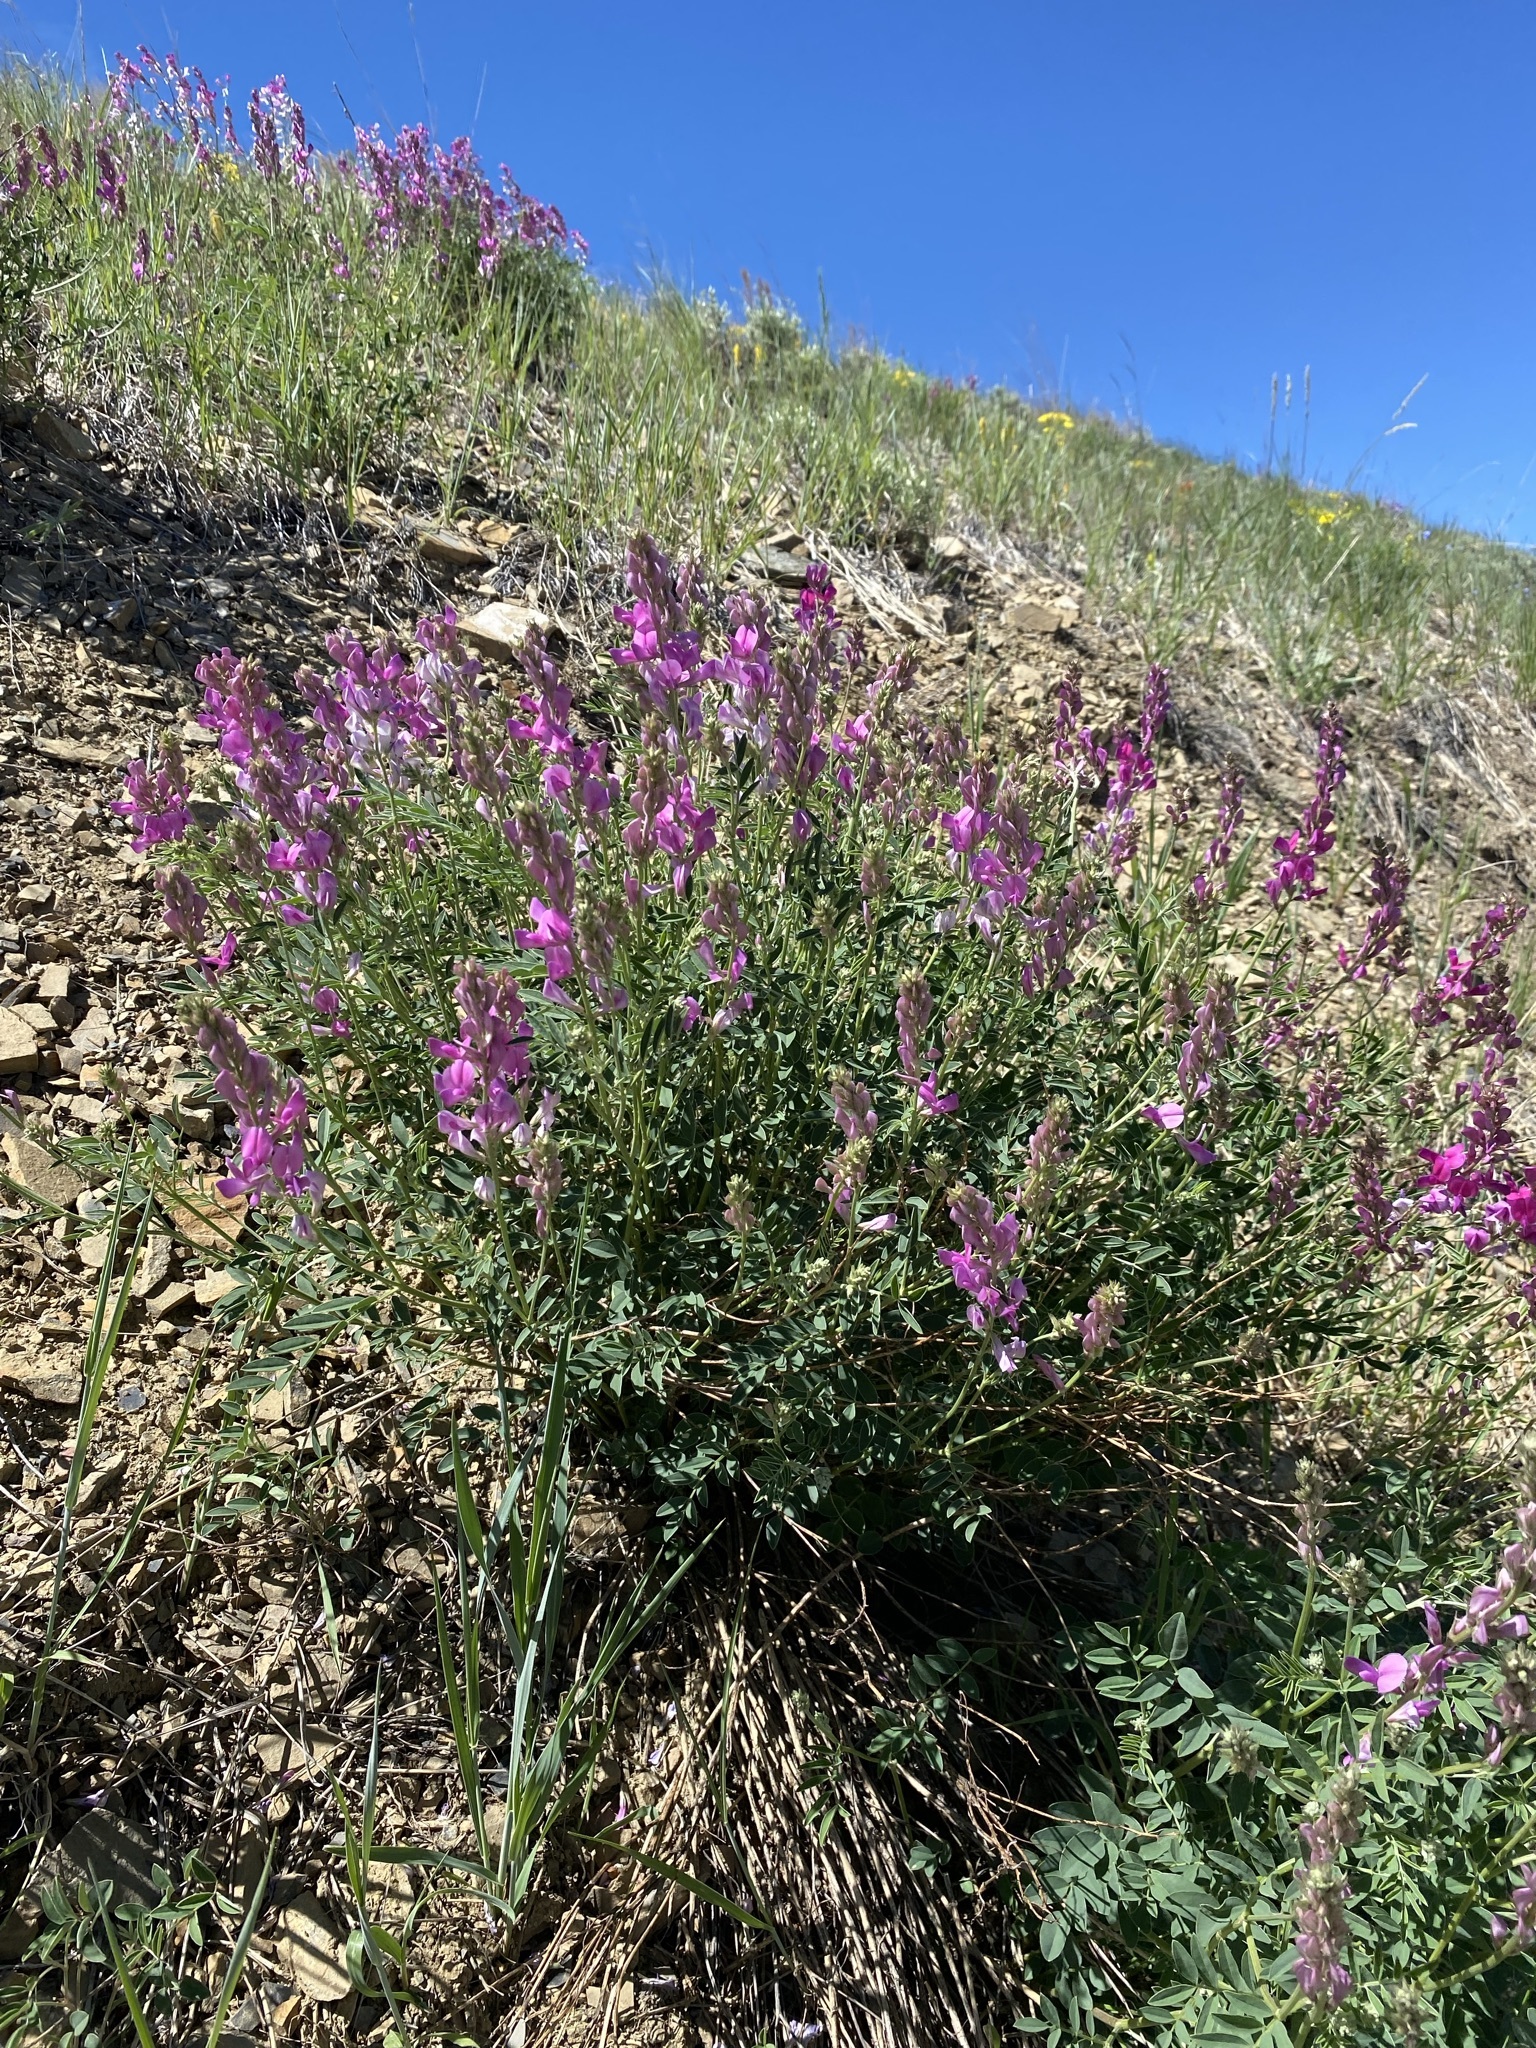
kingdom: Plantae
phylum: Tracheophyta
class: Magnoliopsida
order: Fabales
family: Fabaceae
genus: Hedysarum
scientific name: Hedysarum boreale
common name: Northern sweet-vetch
